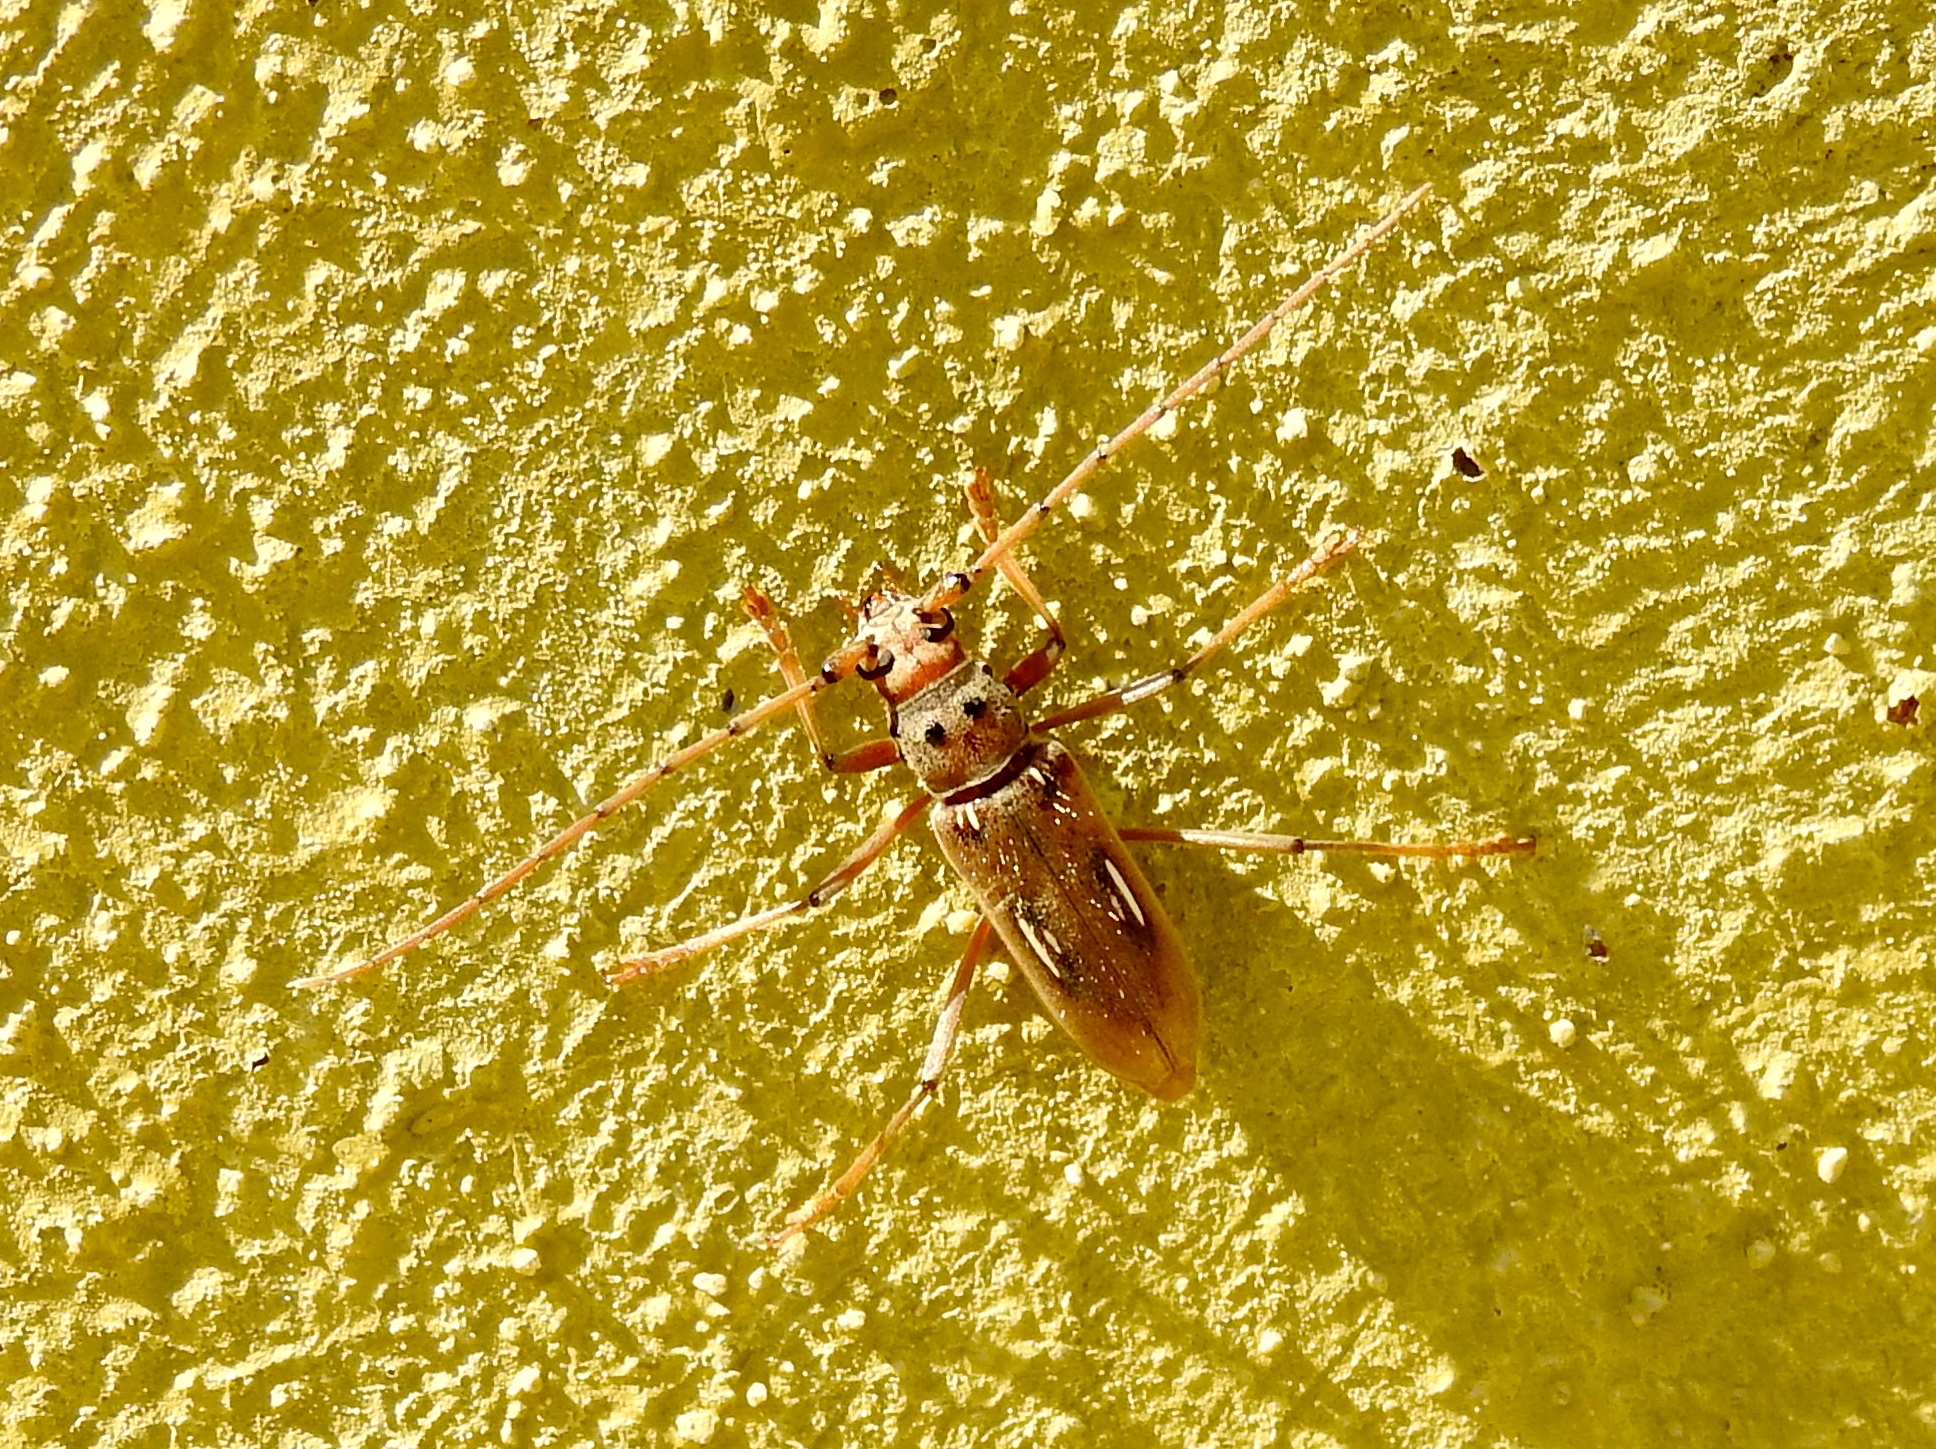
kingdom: Animalia
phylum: Arthropoda
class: Insecta
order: Coleoptera
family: Cerambycidae
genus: Eburia
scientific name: Eburia laticollis
